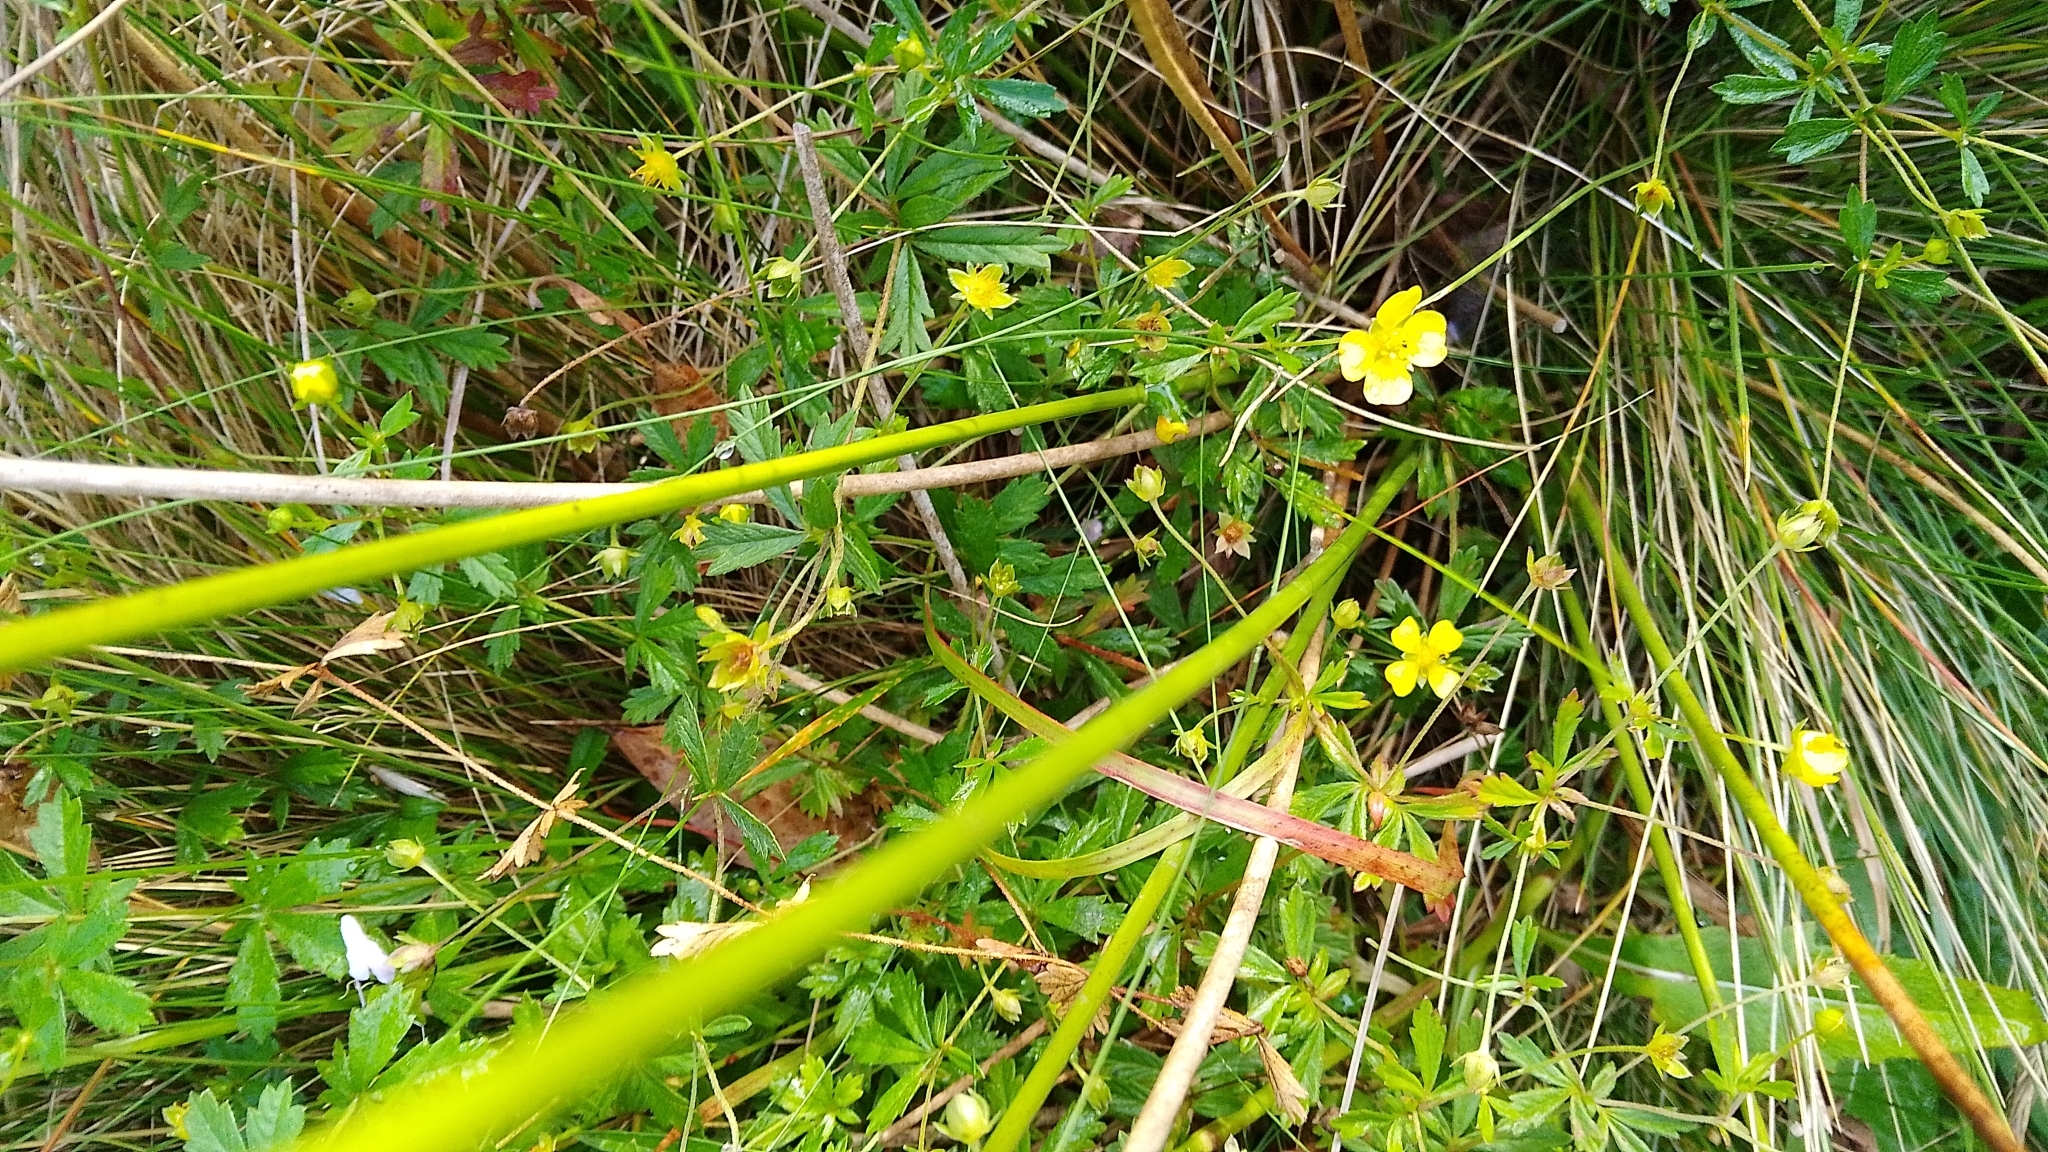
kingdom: Plantae
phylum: Tracheophyta
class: Magnoliopsida
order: Rosales
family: Rosaceae
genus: Potentilla
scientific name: Potentilla erecta
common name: Tormentil
